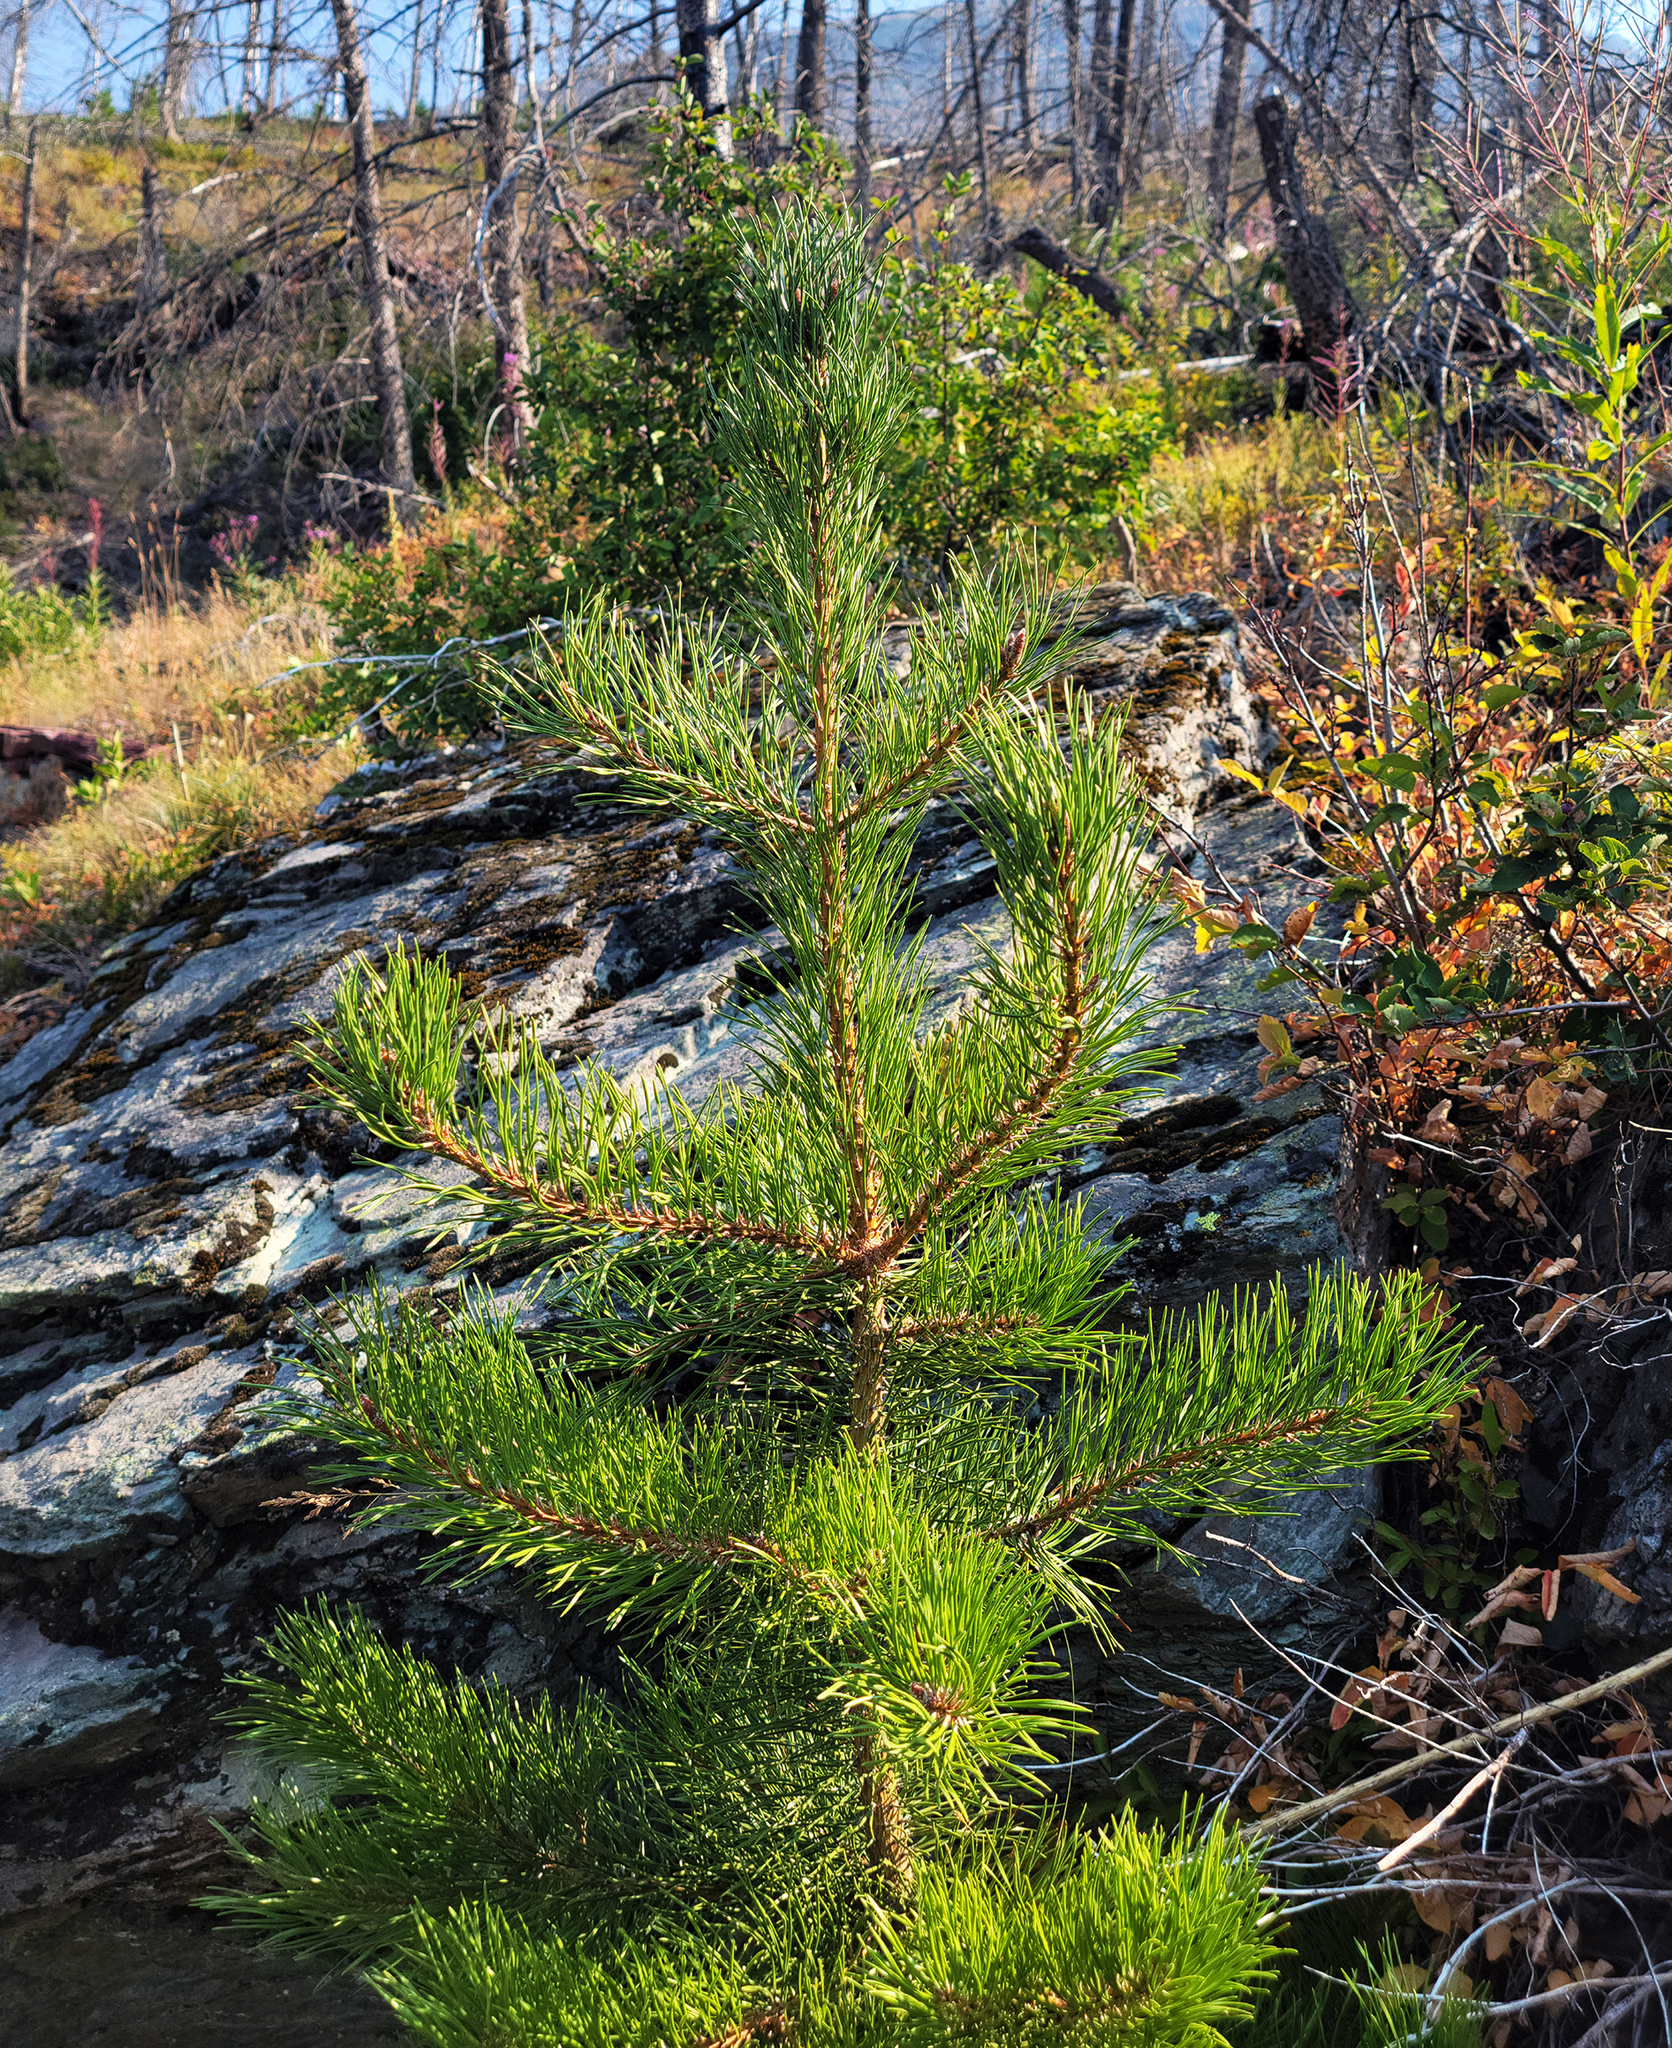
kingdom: Plantae
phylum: Tracheophyta
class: Pinopsida
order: Pinales
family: Pinaceae
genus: Pinus
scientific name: Pinus contorta
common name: Lodgepole pine
